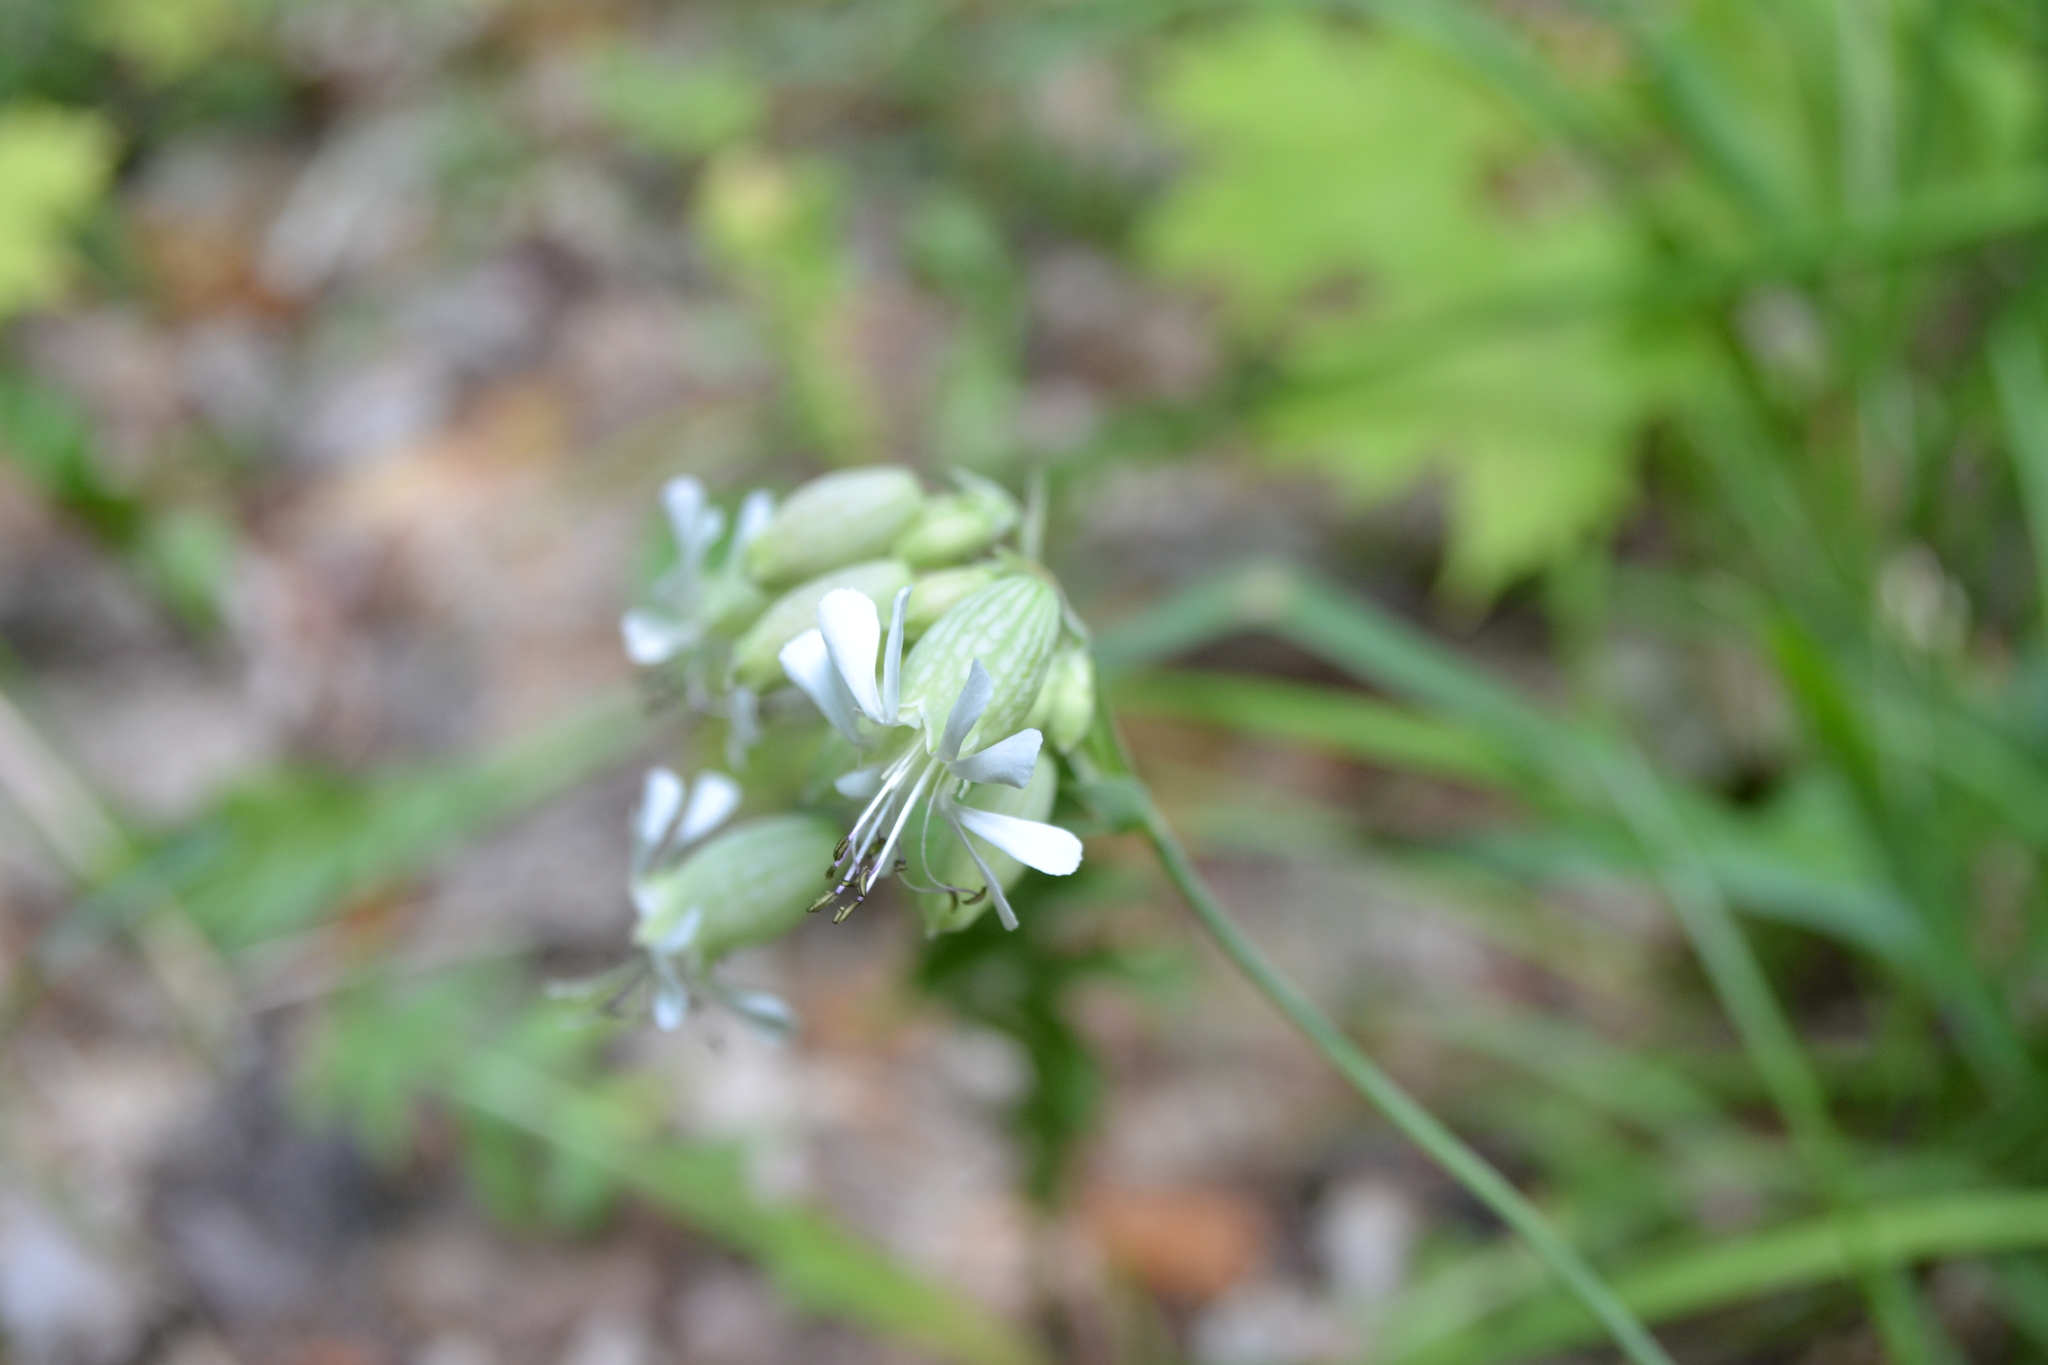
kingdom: Plantae
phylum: Tracheophyta
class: Magnoliopsida
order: Caryophyllales
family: Caryophyllaceae
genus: Silene
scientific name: Silene vulgaris
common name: Bladder campion
